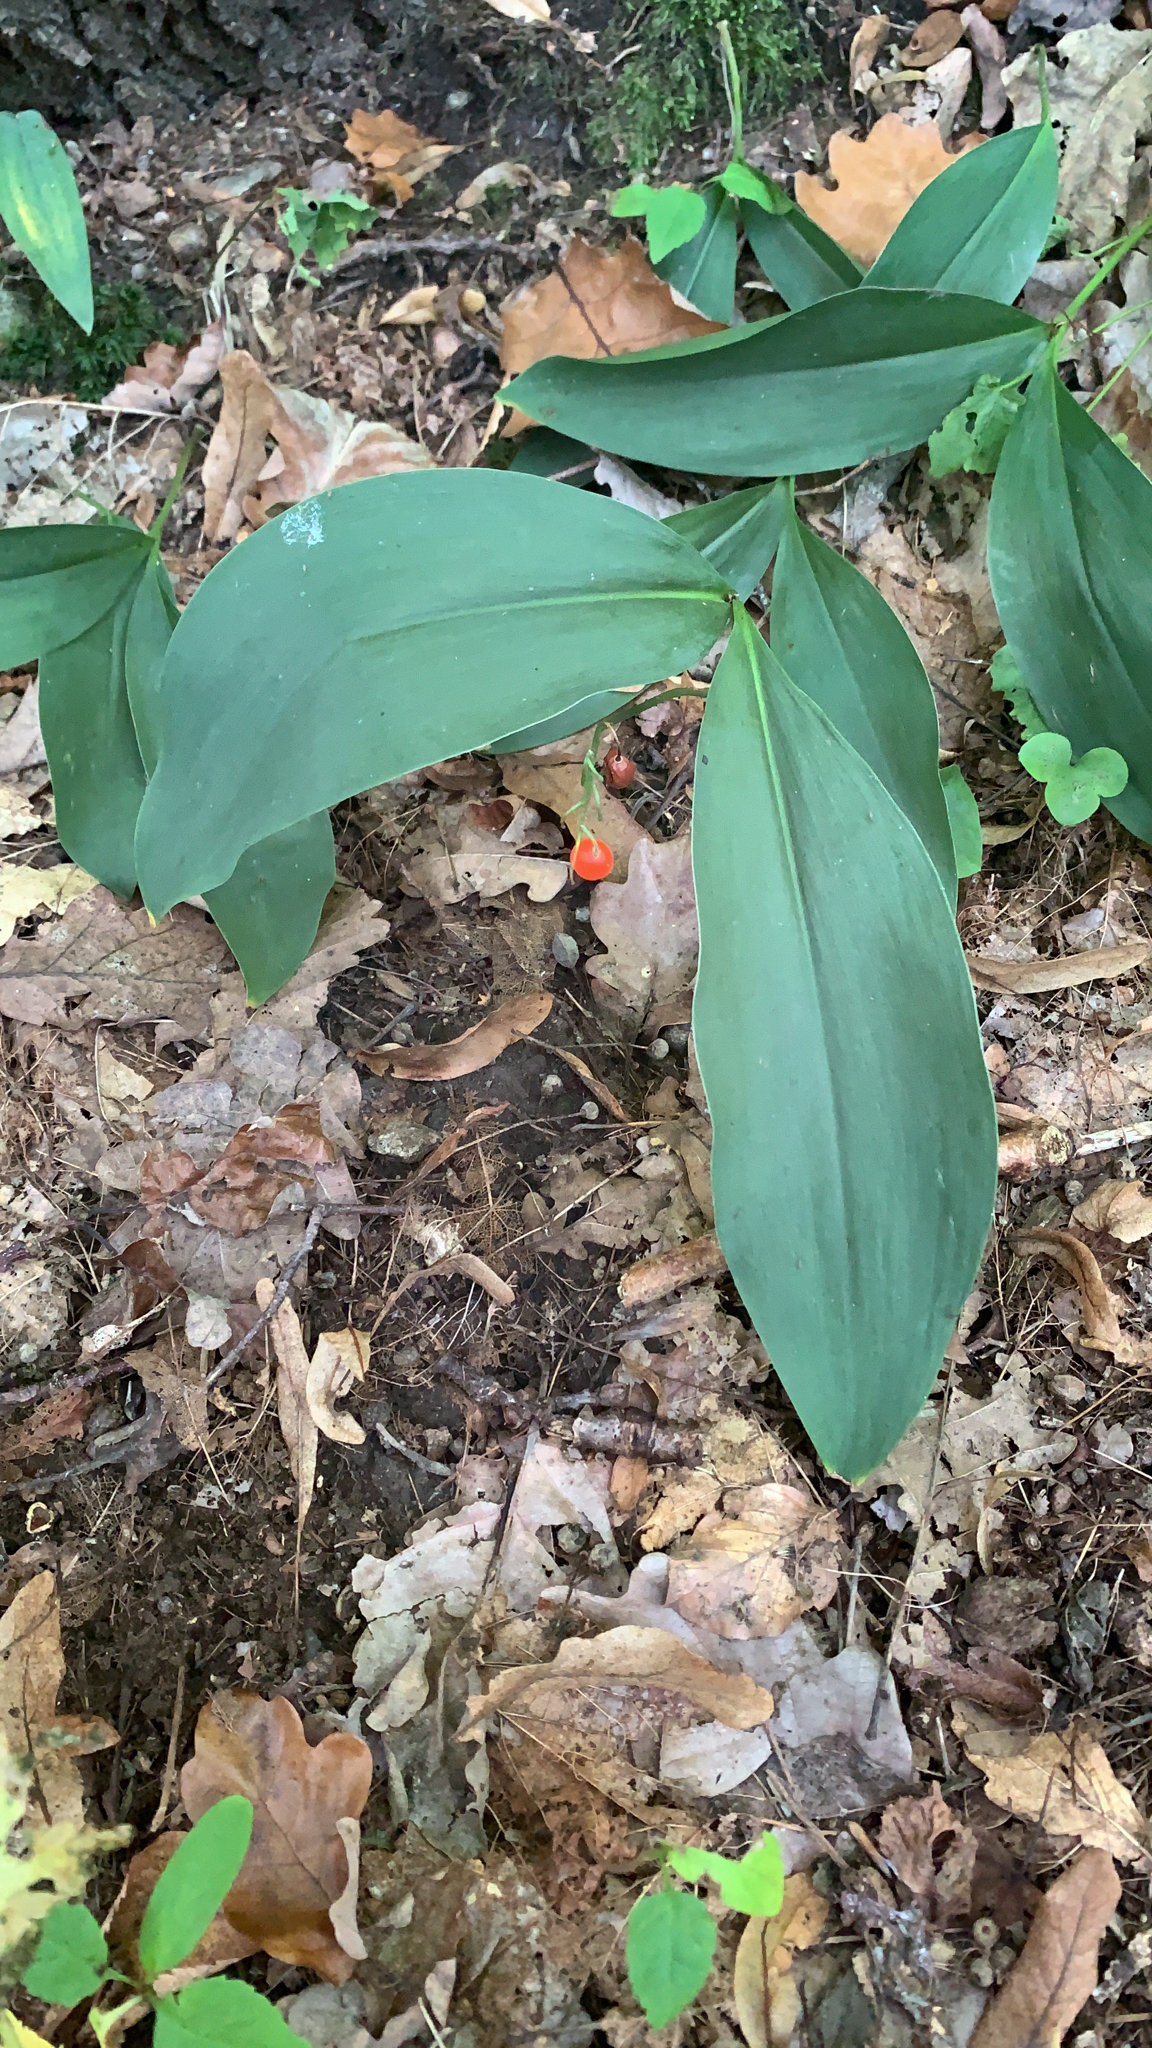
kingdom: Plantae
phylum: Tracheophyta
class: Liliopsida
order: Asparagales
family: Asparagaceae
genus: Convallaria
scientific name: Convallaria majalis
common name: Lily-of-the-valley
